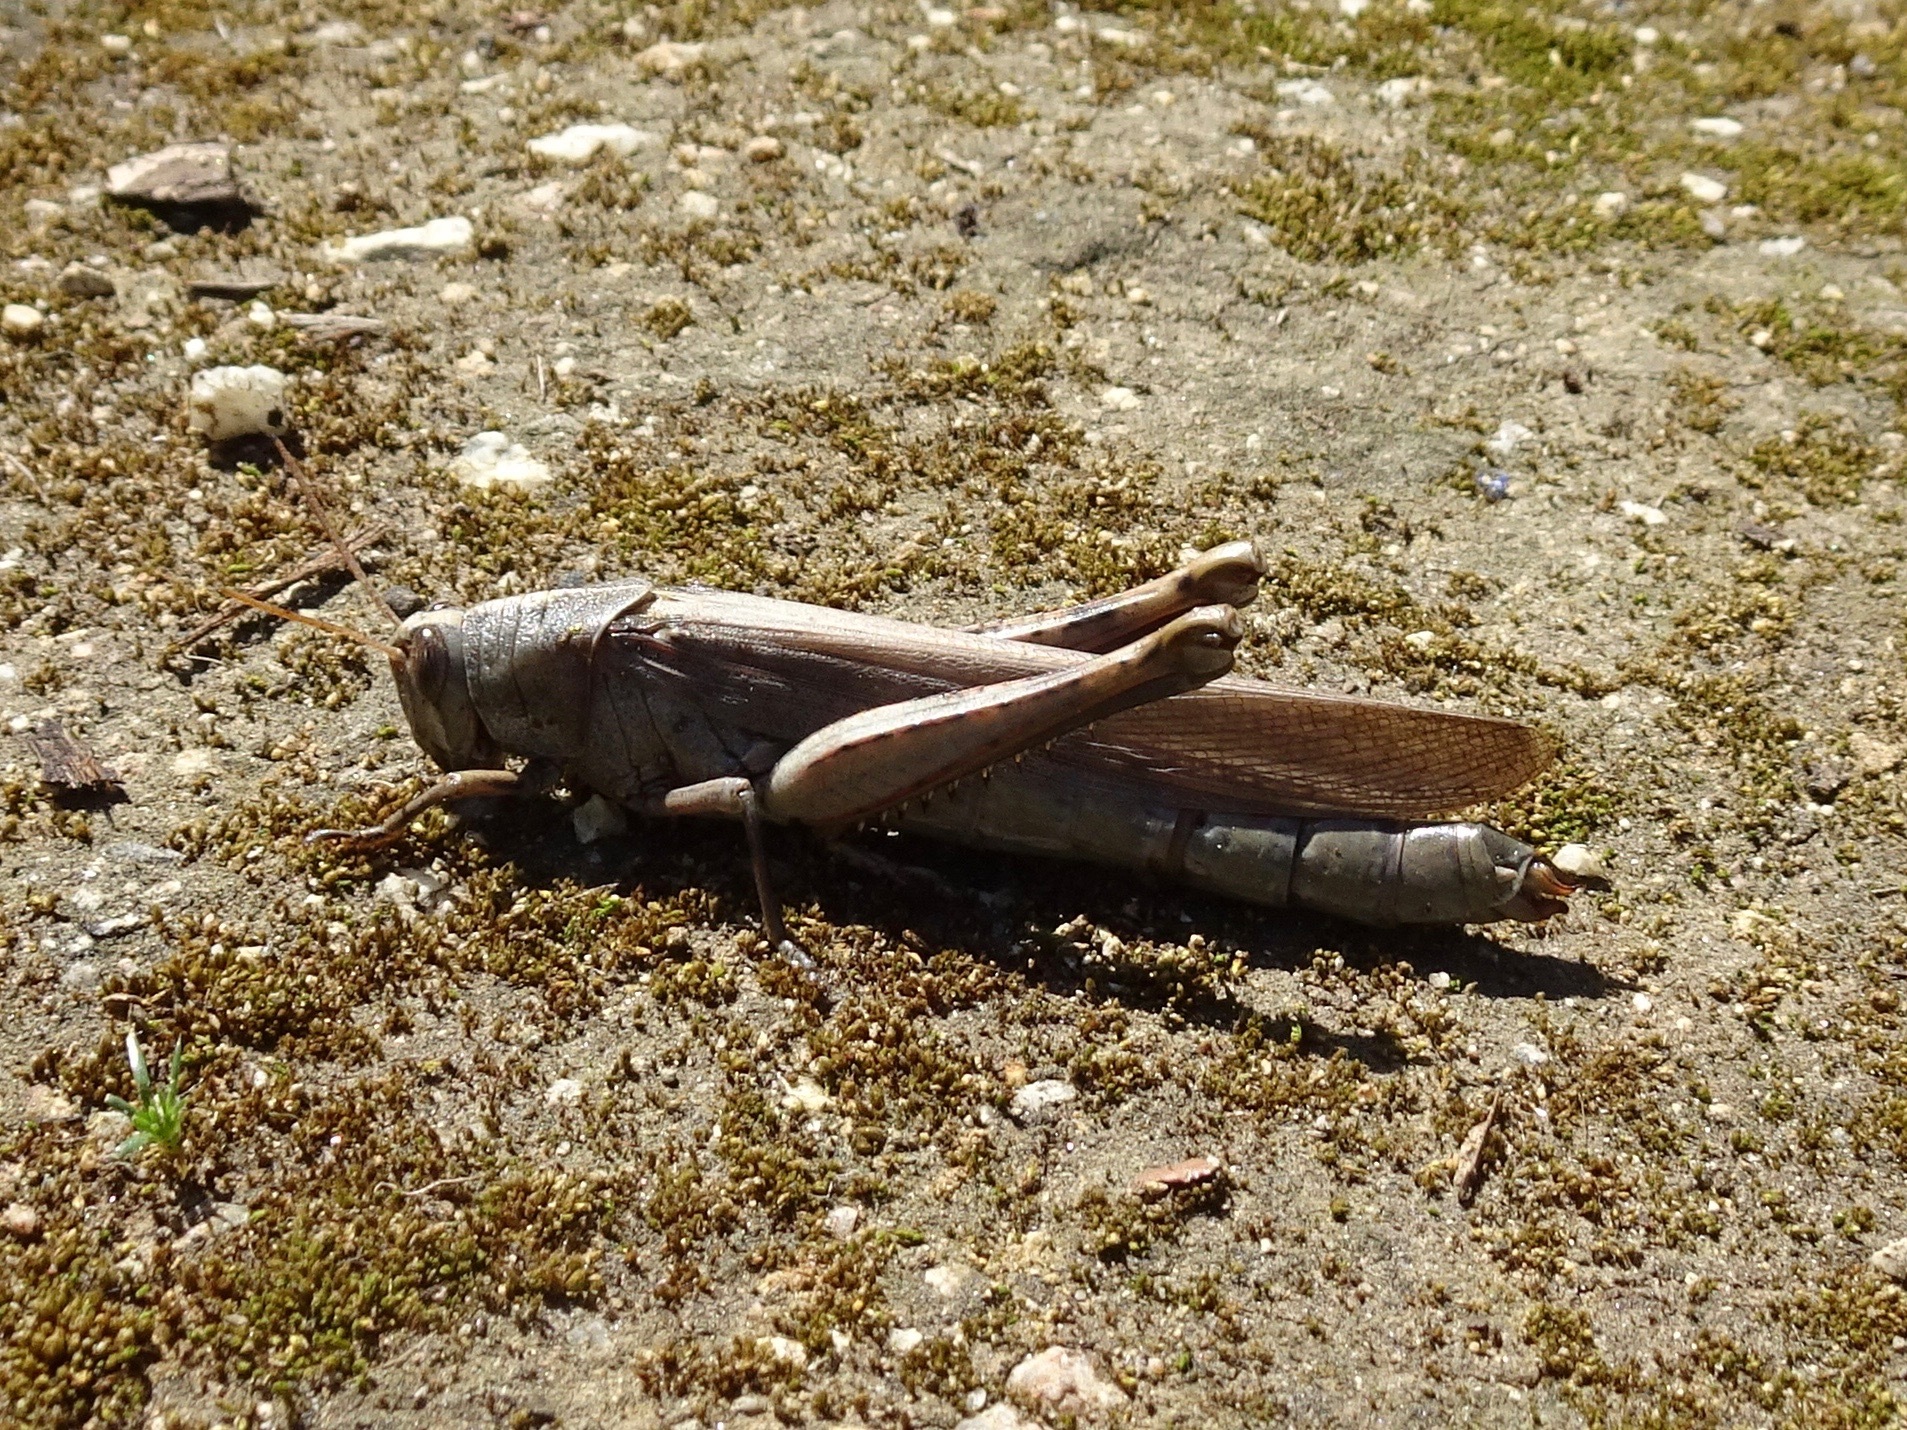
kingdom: Animalia
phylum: Arthropoda
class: Insecta
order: Orthoptera
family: Acrididae
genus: Schistocerca
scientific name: Schistocerca nitens
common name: Vagrant grasshopper
